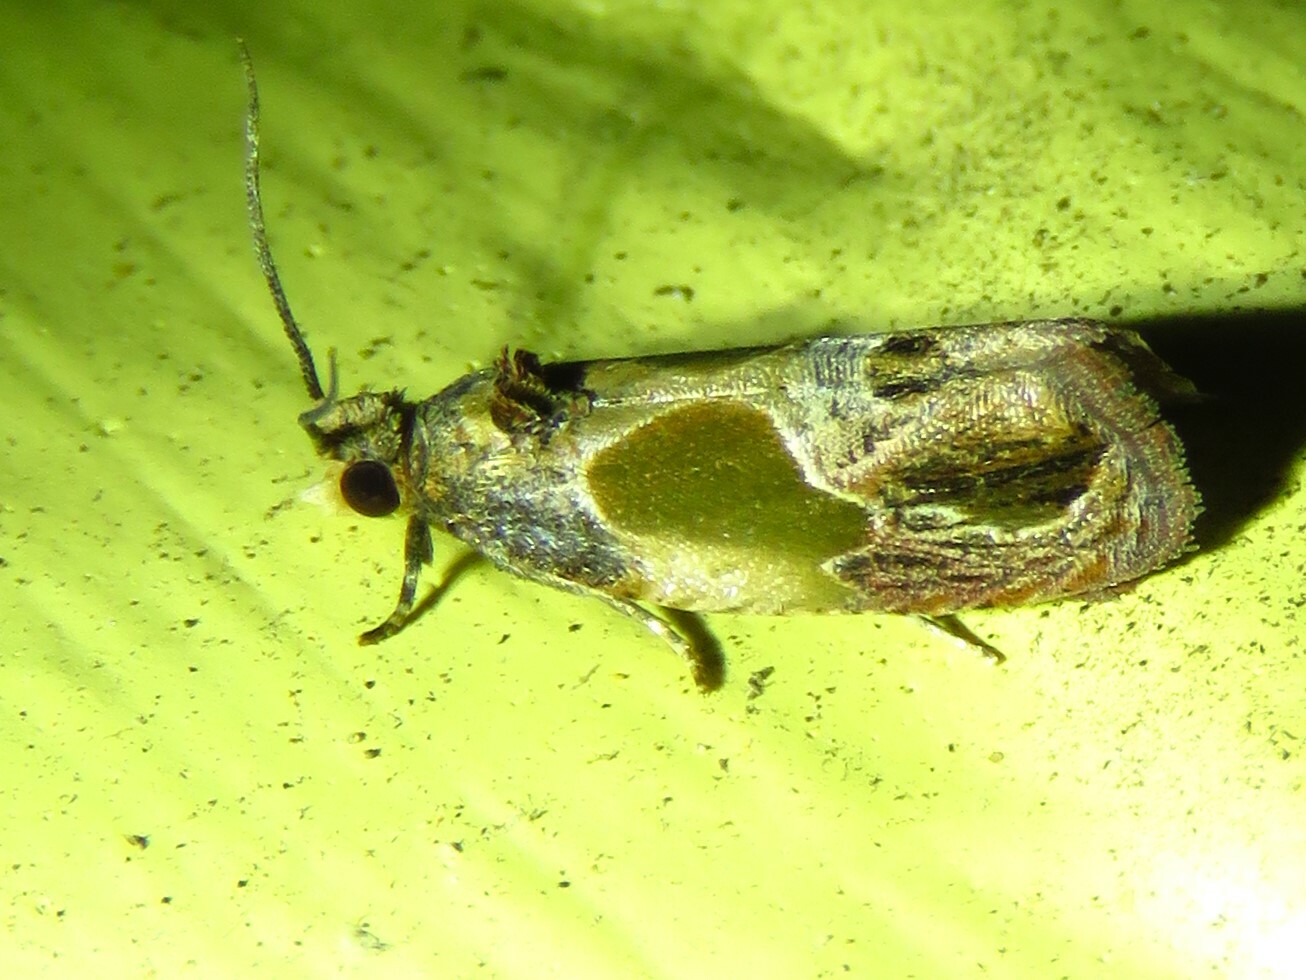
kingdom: Animalia
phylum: Arthropoda
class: Insecta
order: Lepidoptera
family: Tortricidae
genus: Eumarozia
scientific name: Eumarozia malachitana
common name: Sculptured moth
